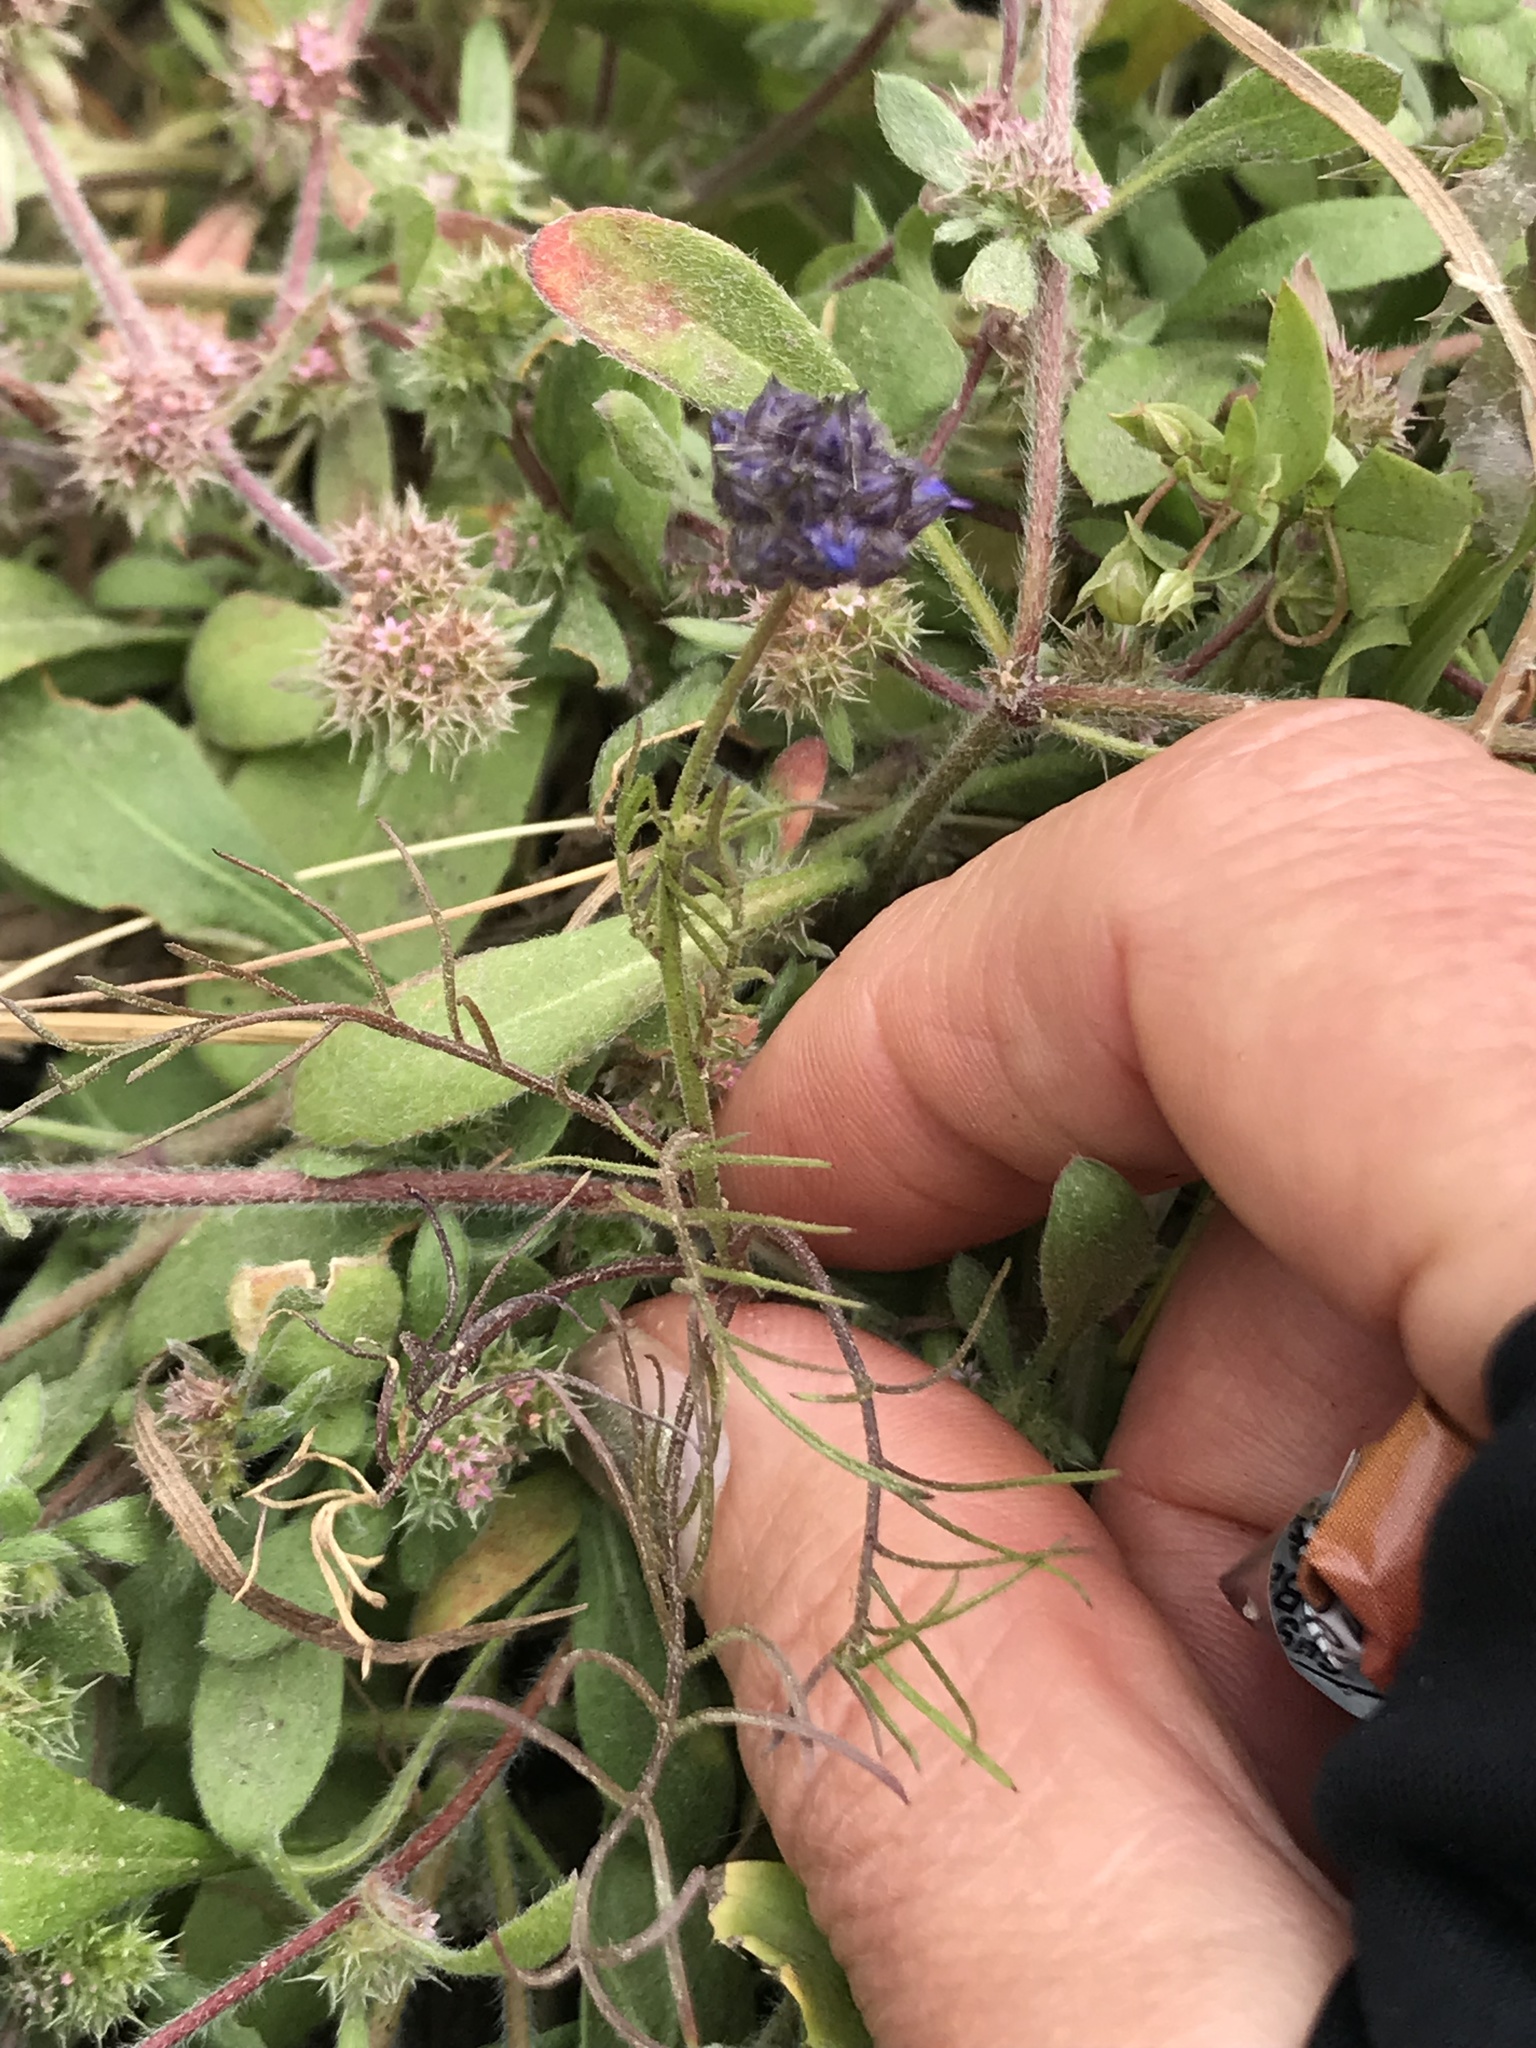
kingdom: Plantae
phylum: Tracheophyta
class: Magnoliopsida
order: Ericales
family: Polemoniaceae
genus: Gilia
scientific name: Gilia capitata
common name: Bluehead gilia
